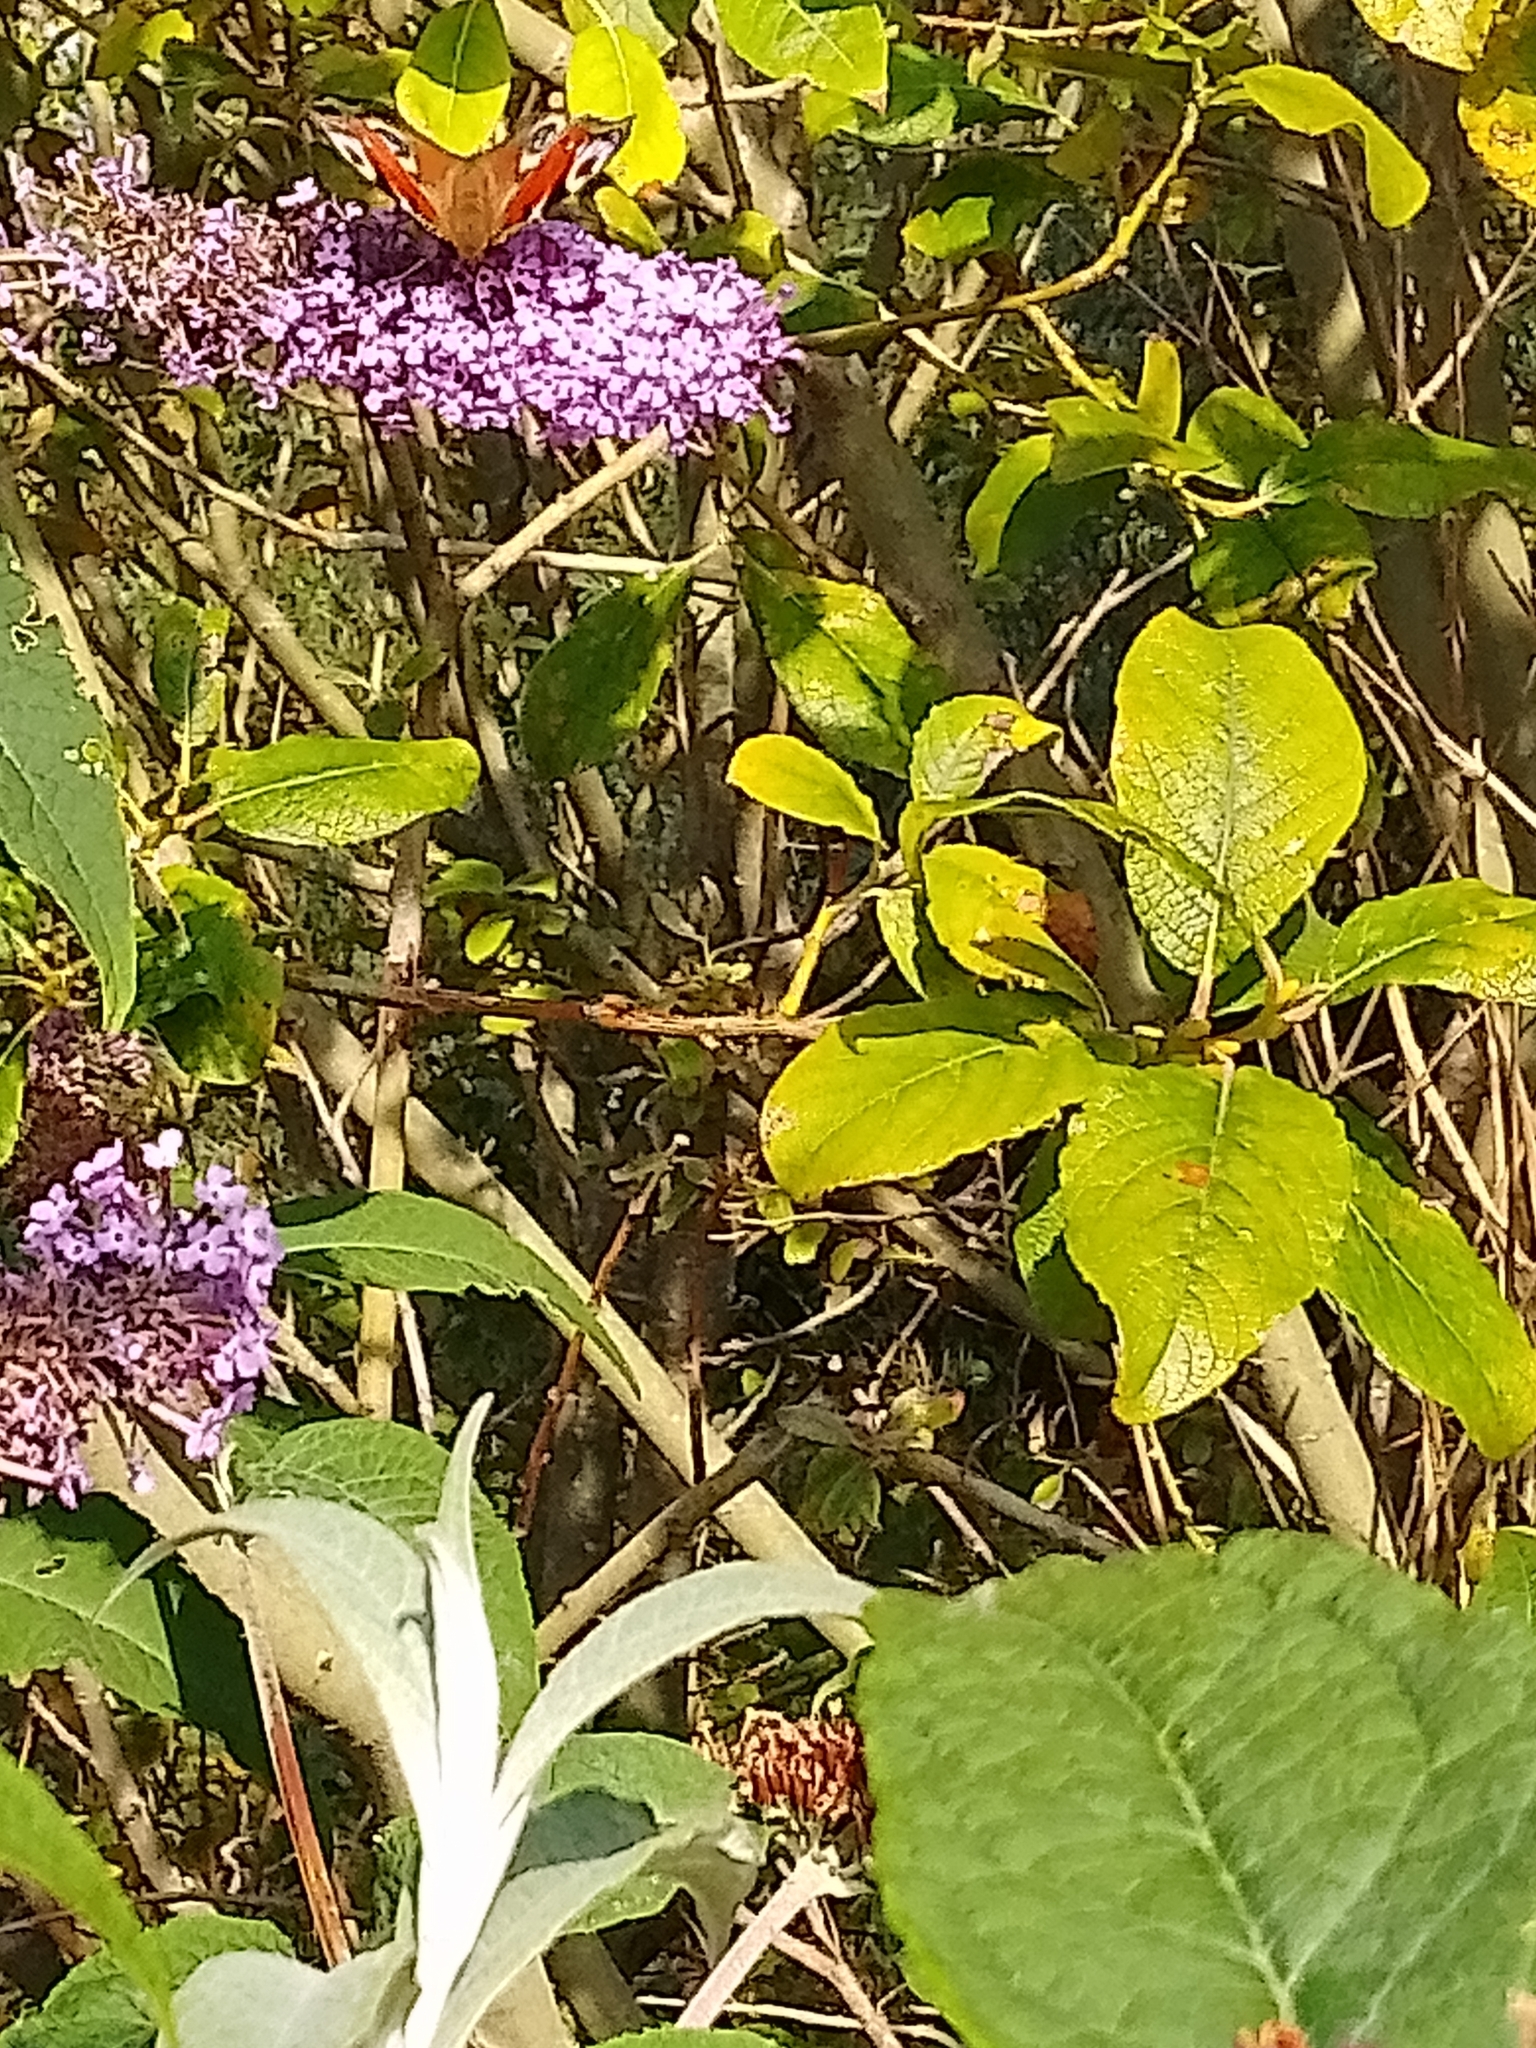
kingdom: Animalia
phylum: Arthropoda
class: Insecta
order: Lepidoptera
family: Nymphalidae
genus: Aglais
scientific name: Aglais io
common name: Peacock
